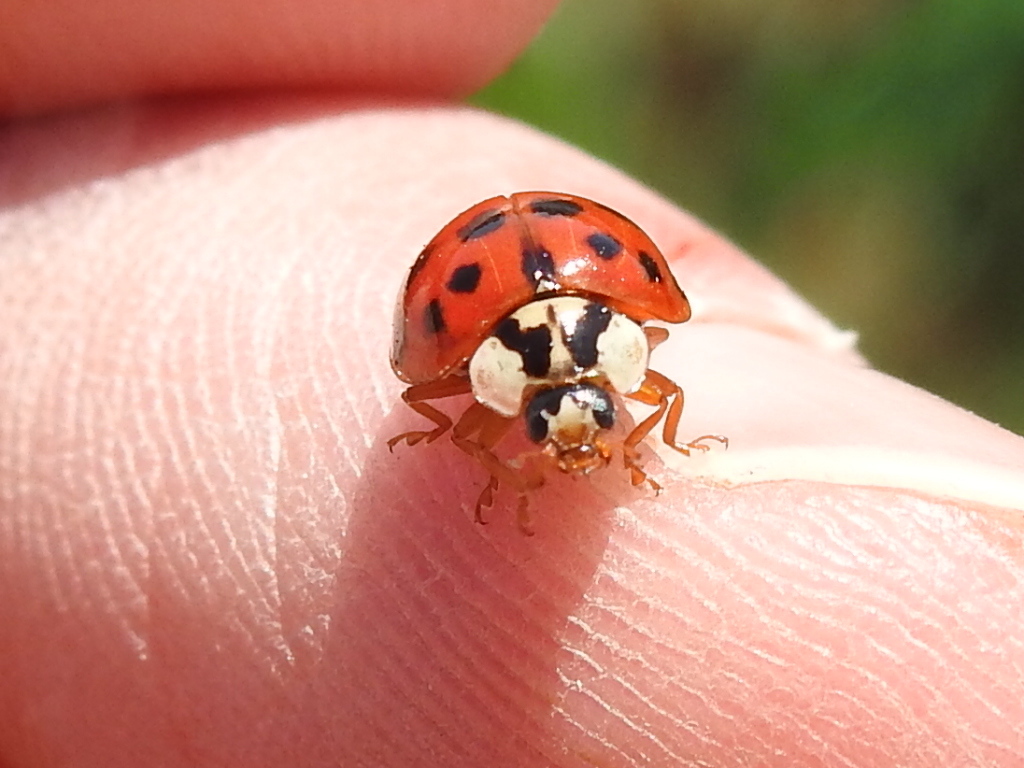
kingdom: Animalia
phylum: Arthropoda
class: Insecta
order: Coleoptera
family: Coccinellidae
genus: Harmonia
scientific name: Harmonia axyridis
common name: Harlequin ladybird
